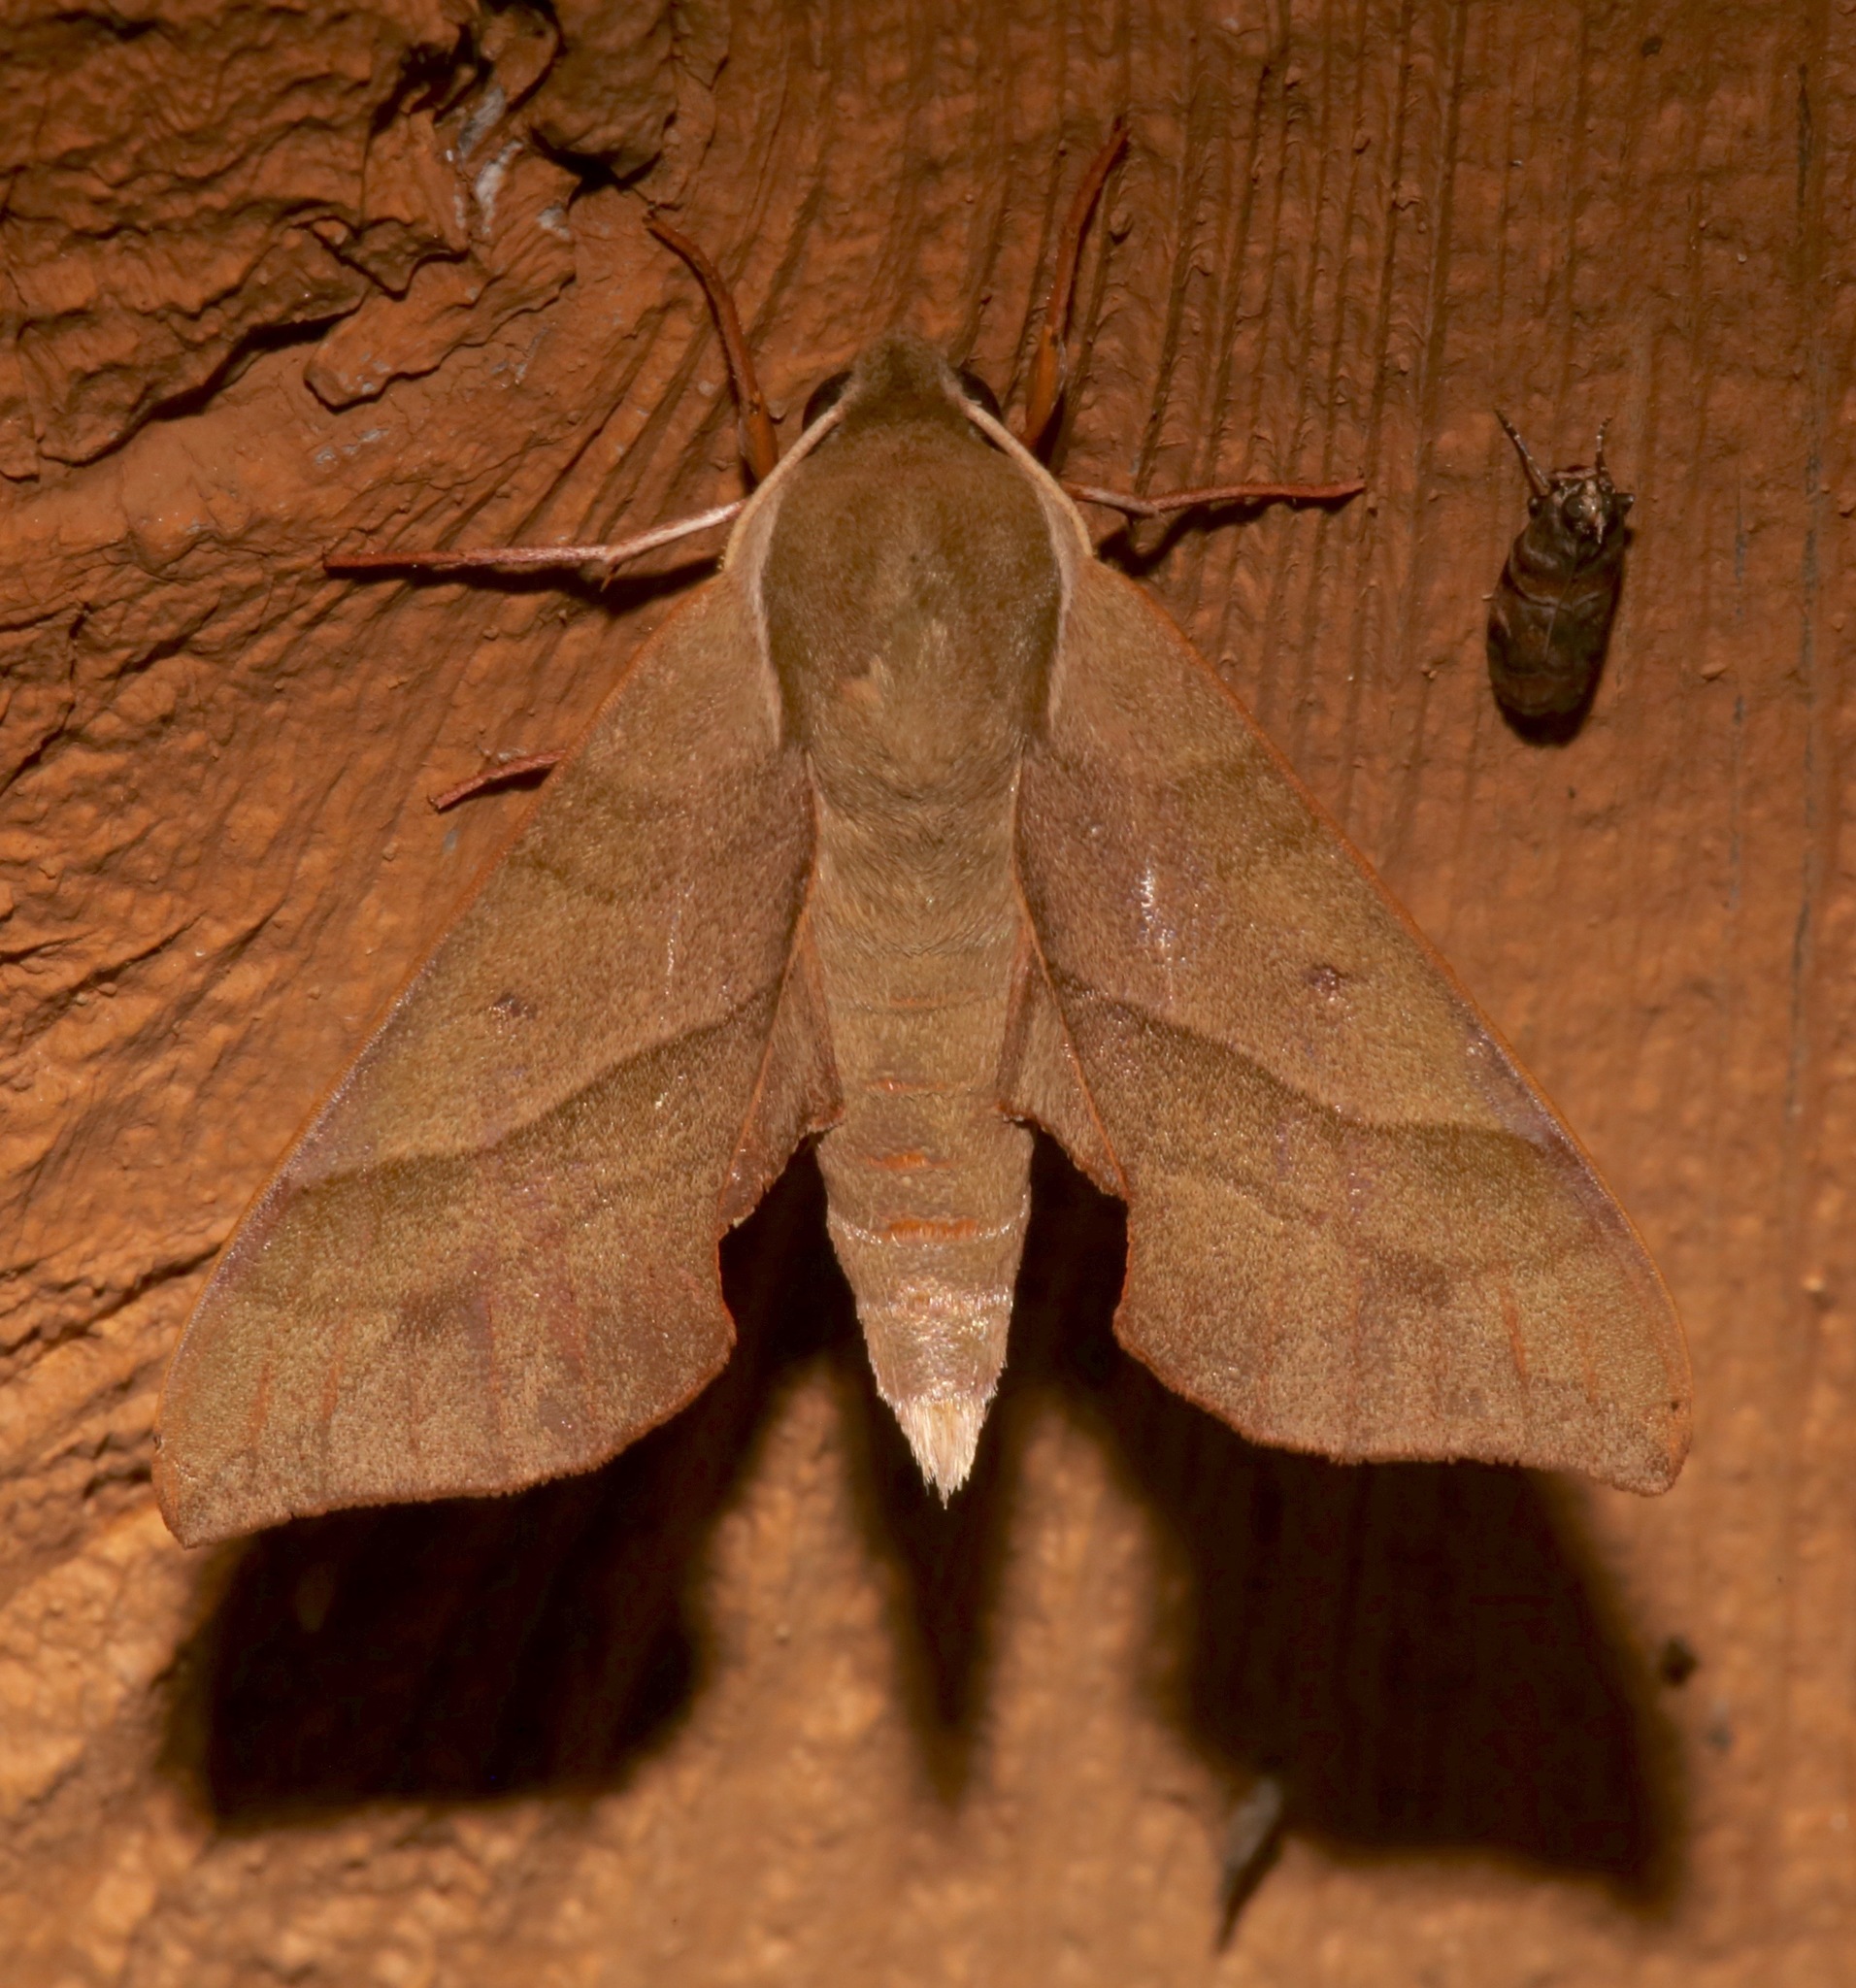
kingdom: Animalia
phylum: Arthropoda
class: Insecta
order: Lepidoptera
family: Sphingidae
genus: Darapsa
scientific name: Darapsa myron
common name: Hog sphinx
